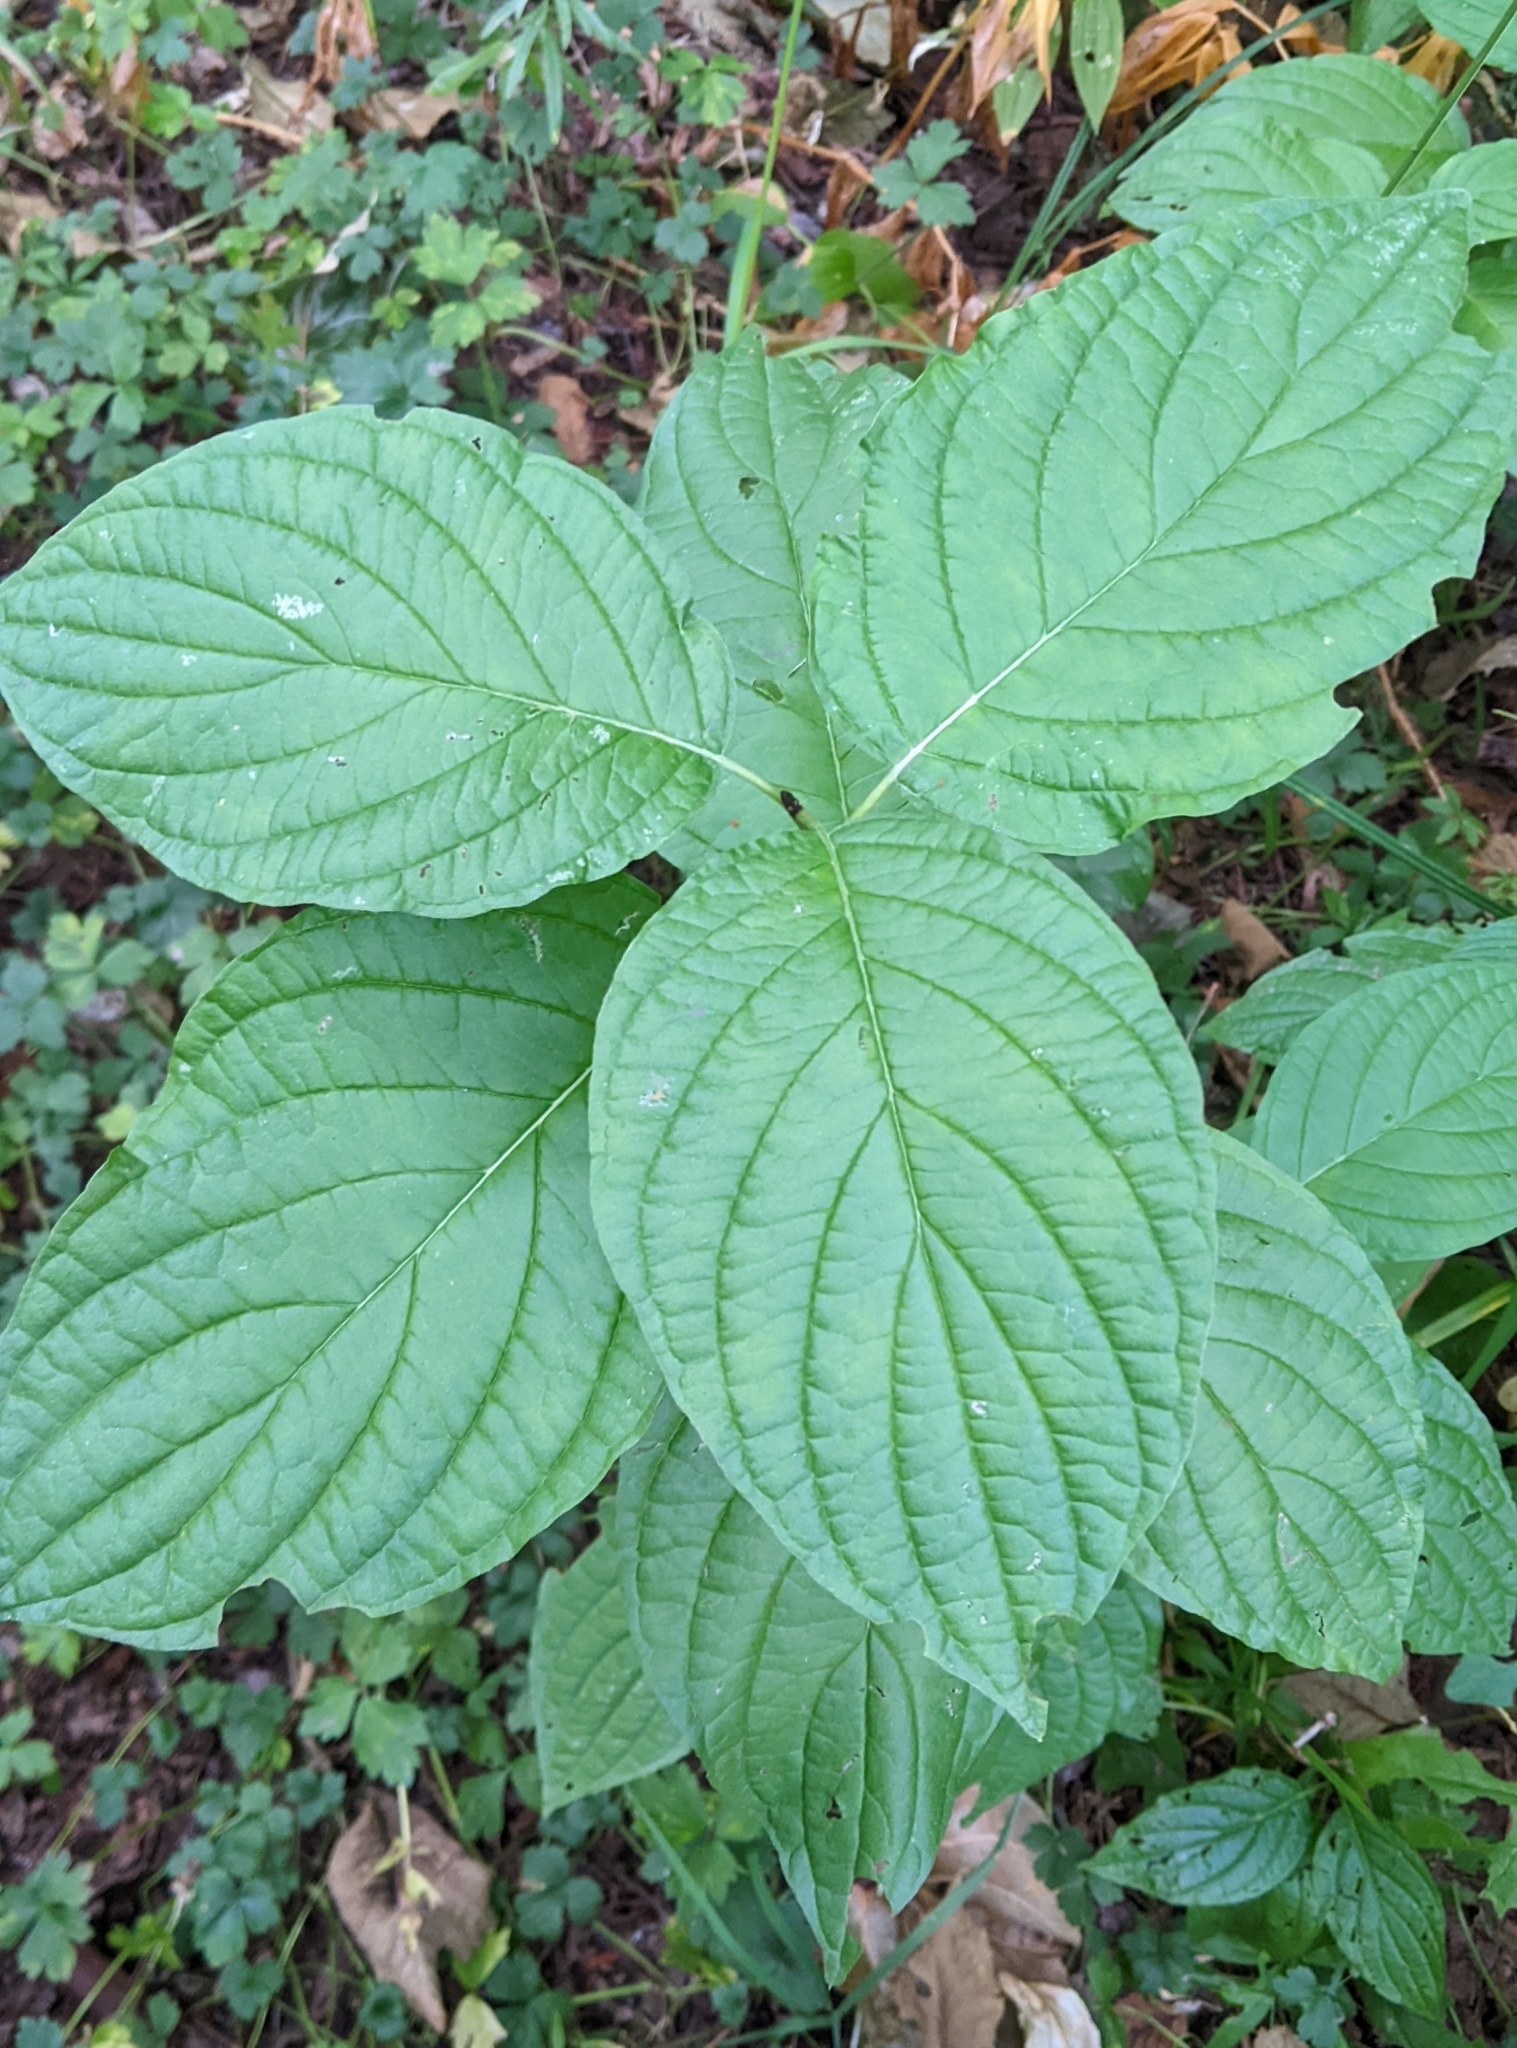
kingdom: Plantae
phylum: Tracheophyta
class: Magnoliopsida
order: Cornales
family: Cornaceae
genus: Cornus
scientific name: Cornus sericea
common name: Red-osier dogwood
